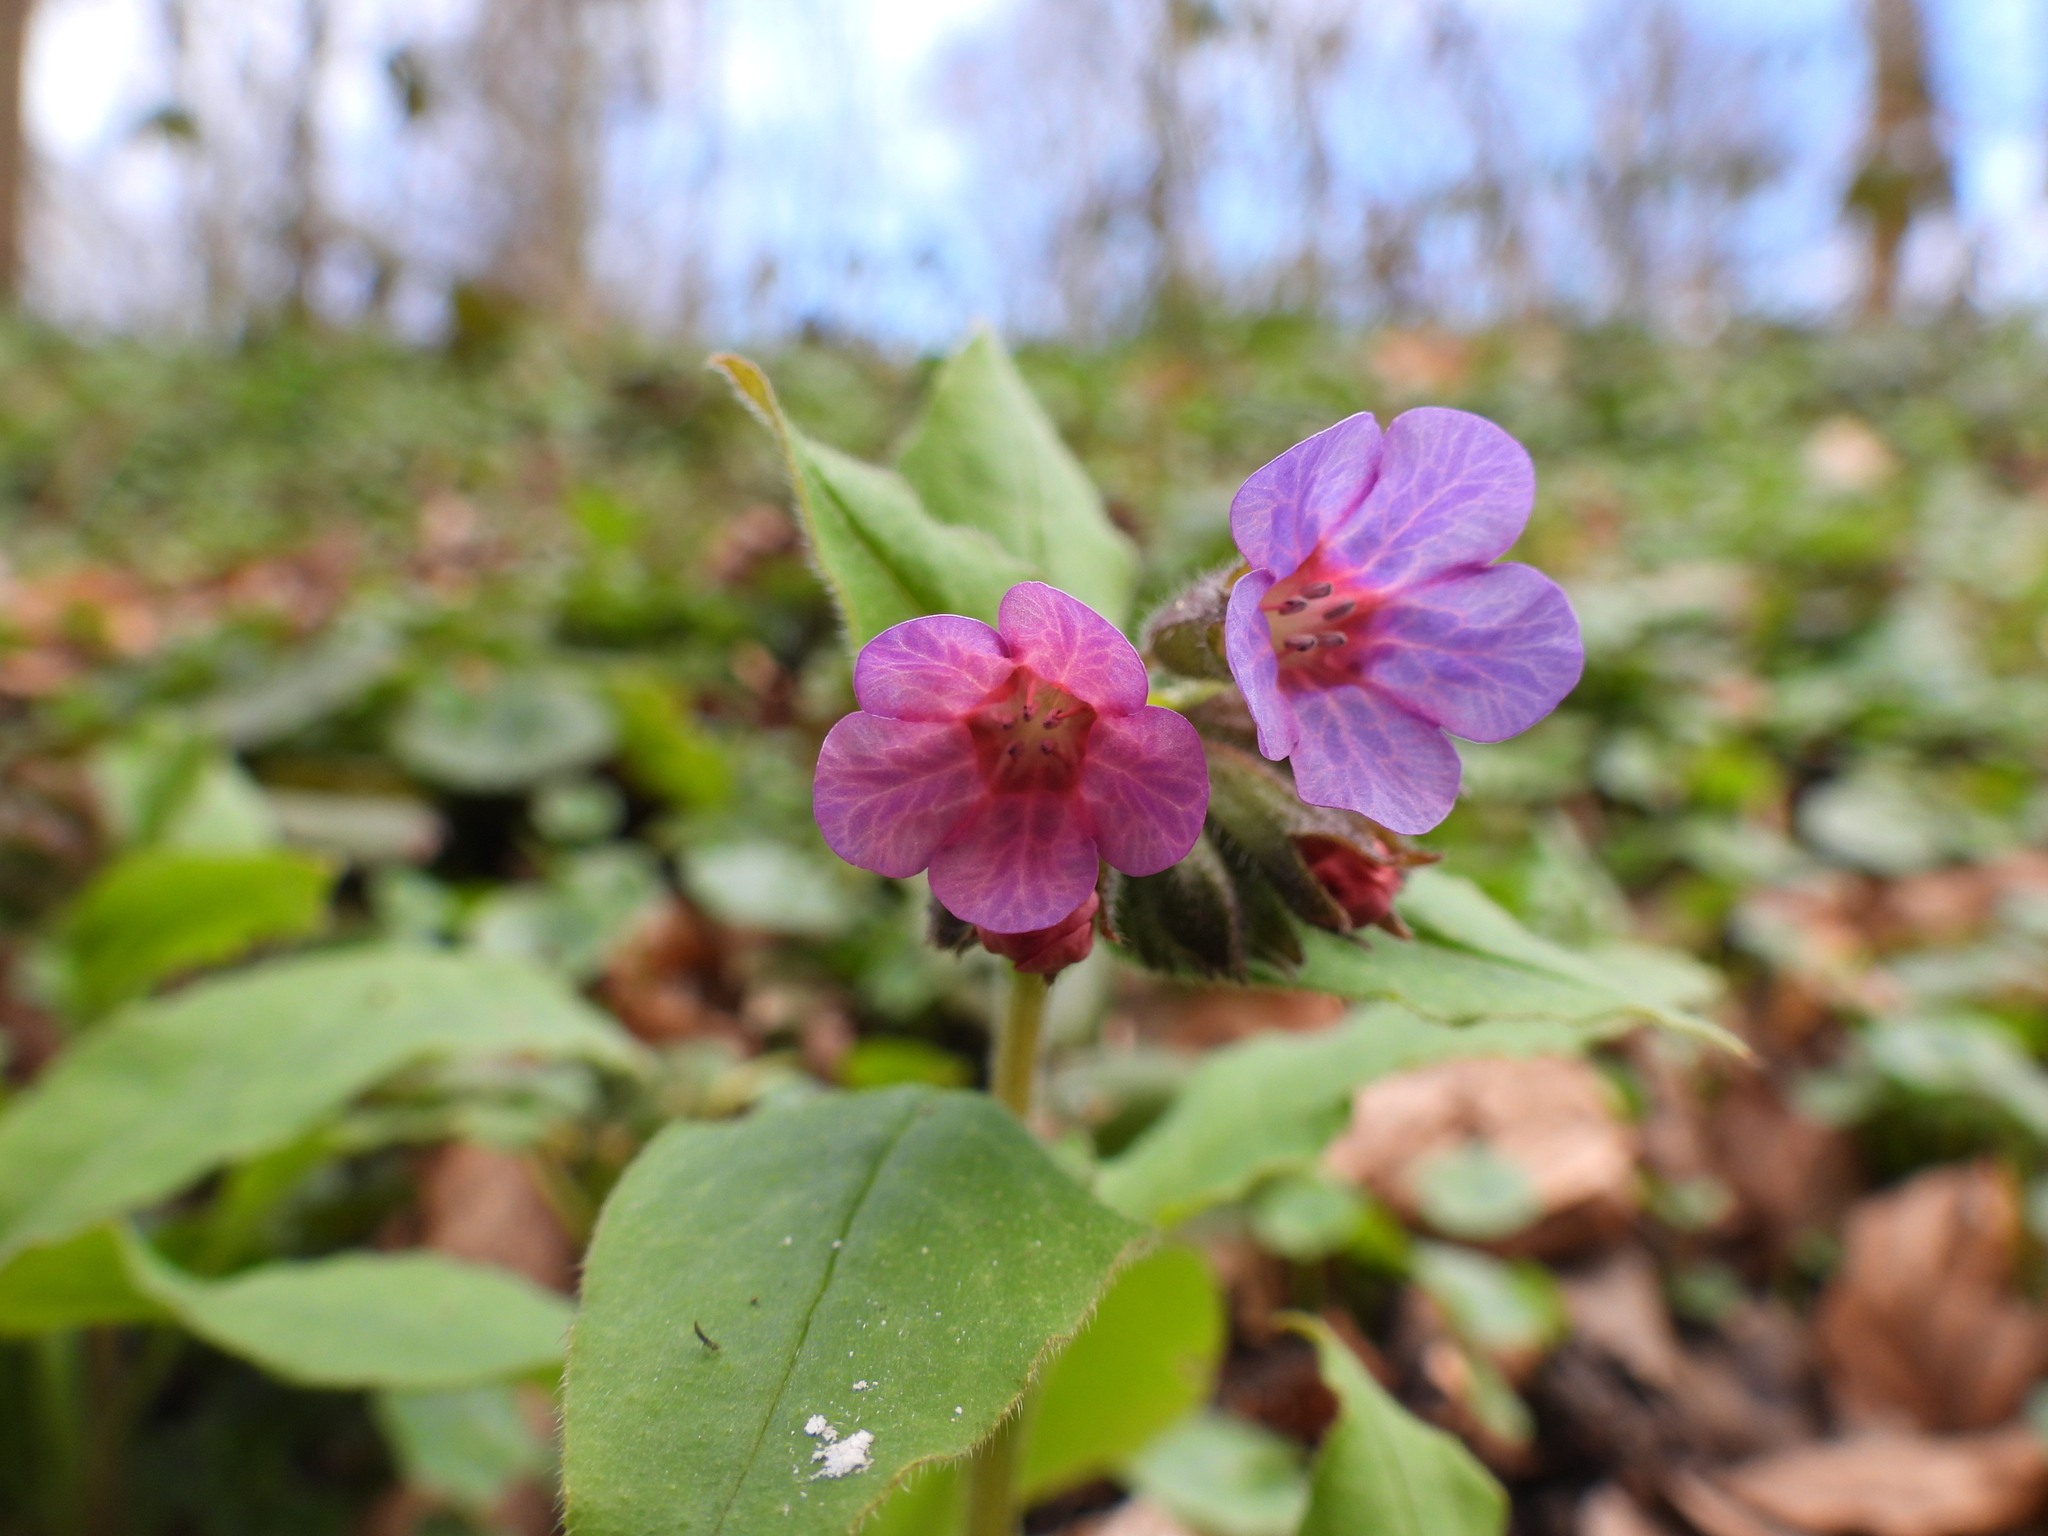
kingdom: Plantae
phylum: Tracheophyta
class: Magnoliopsida
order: Boraginales
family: Boraginaceae
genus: Pulmonaria
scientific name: Pulmonaria obscura
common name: Suffolk lungwort
